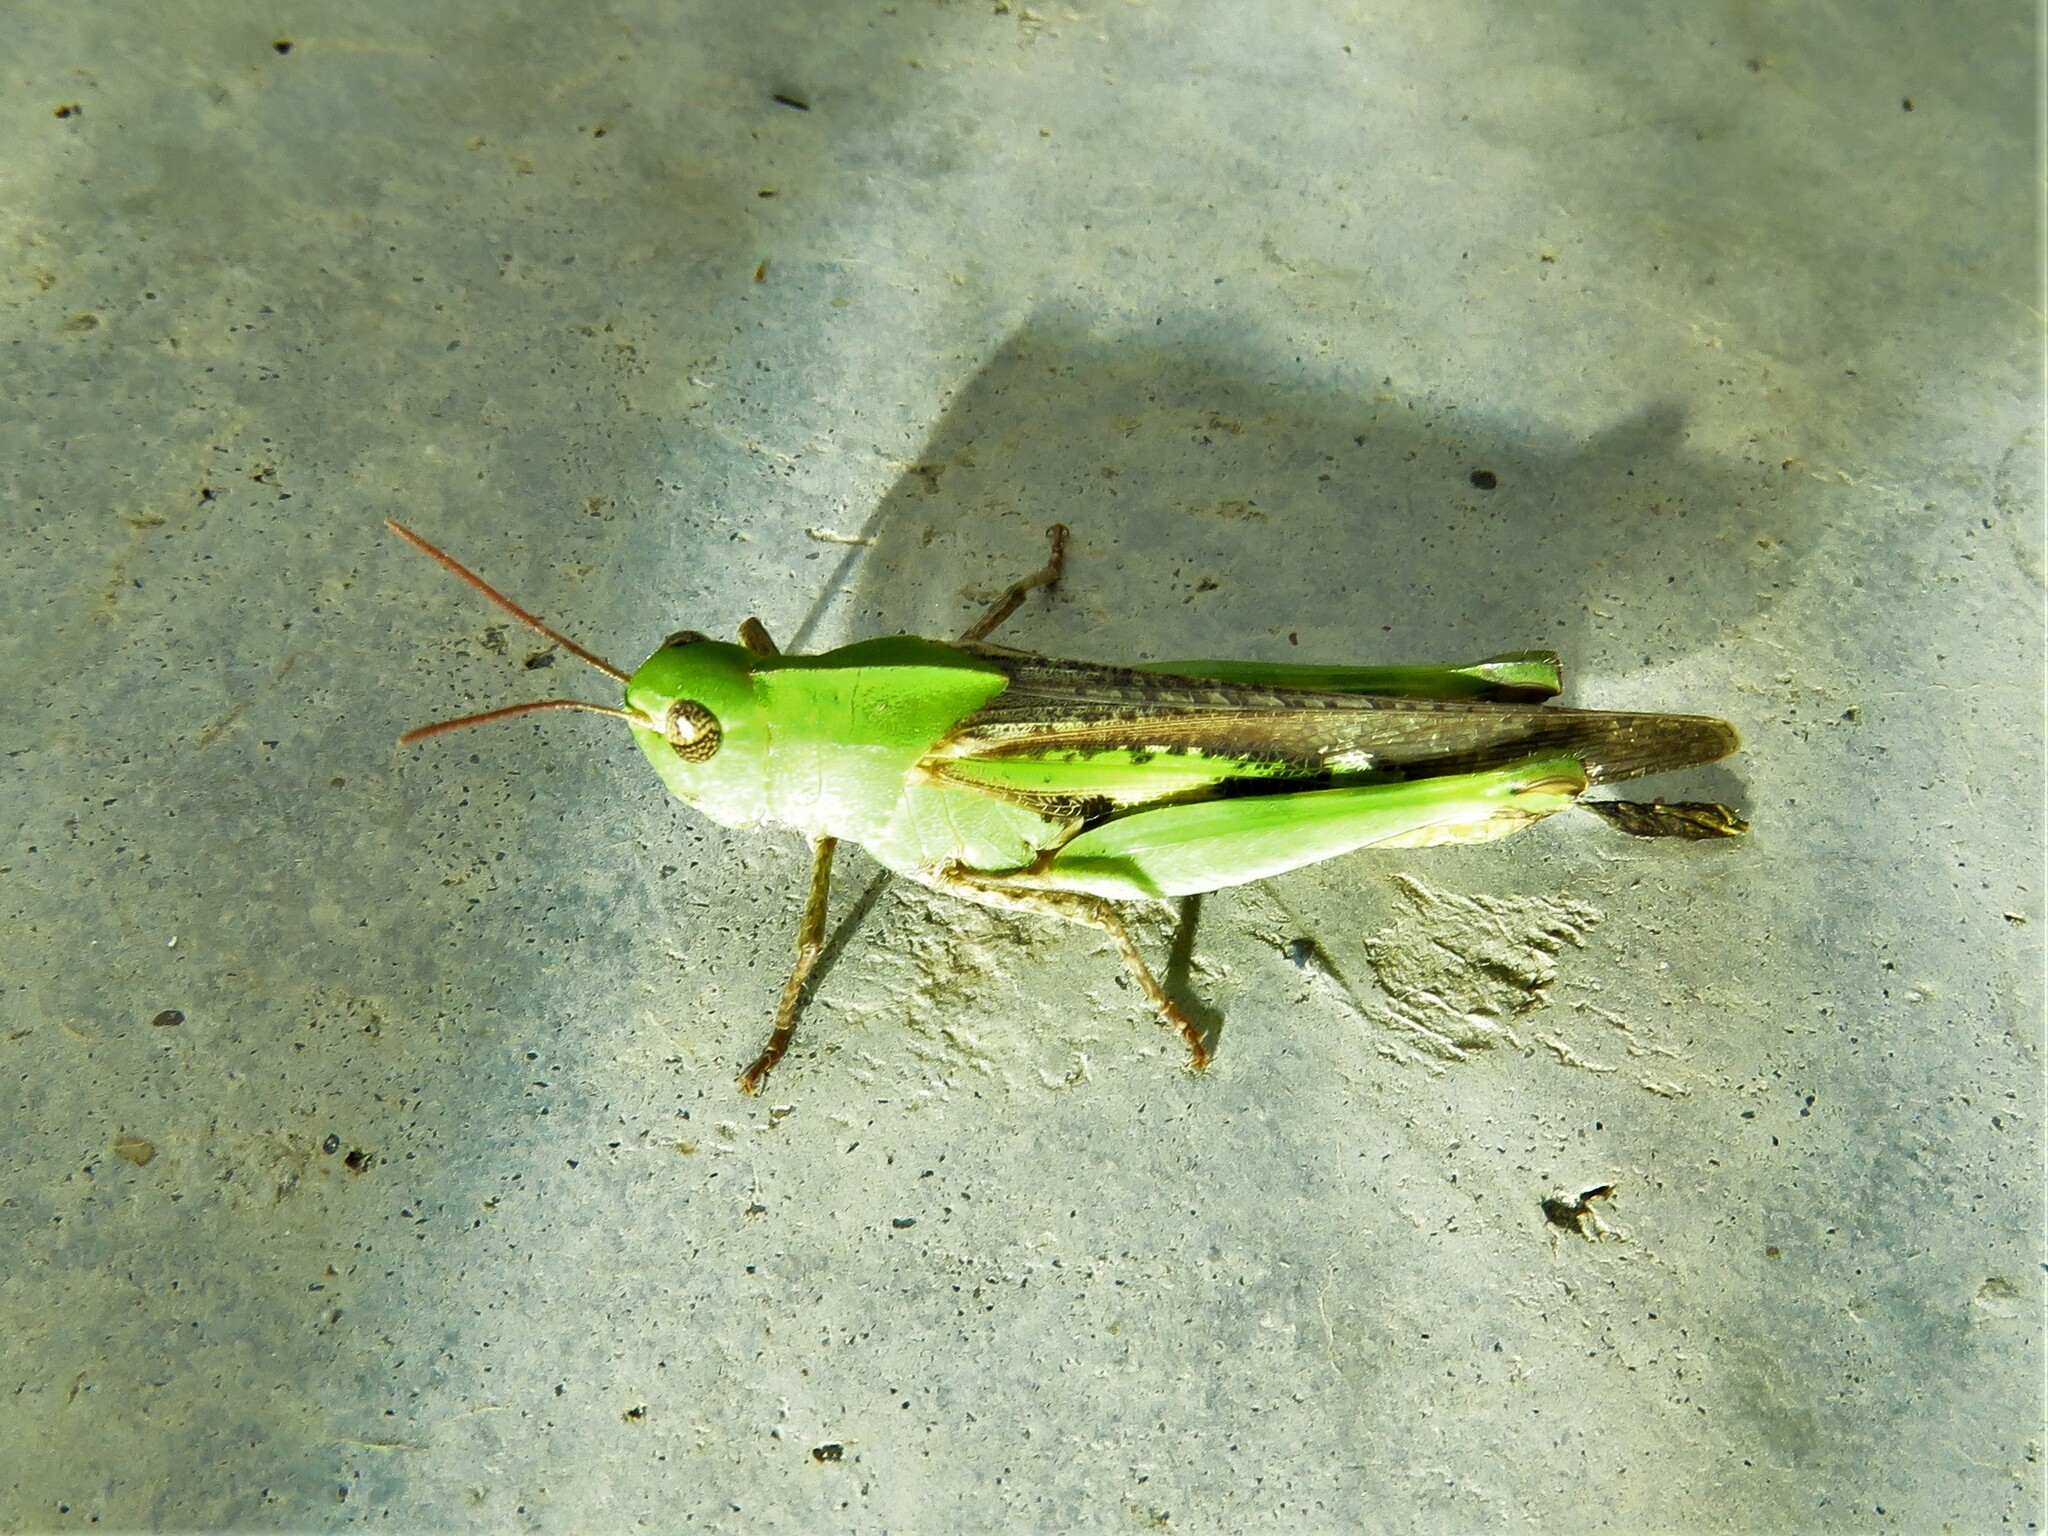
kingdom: Animalia
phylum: Arthropoda
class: Insecta
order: Orthoptera
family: Acrididae
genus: Chortophaga
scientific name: Chortophaga viridifasciata
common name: Green-striped grasshopper
